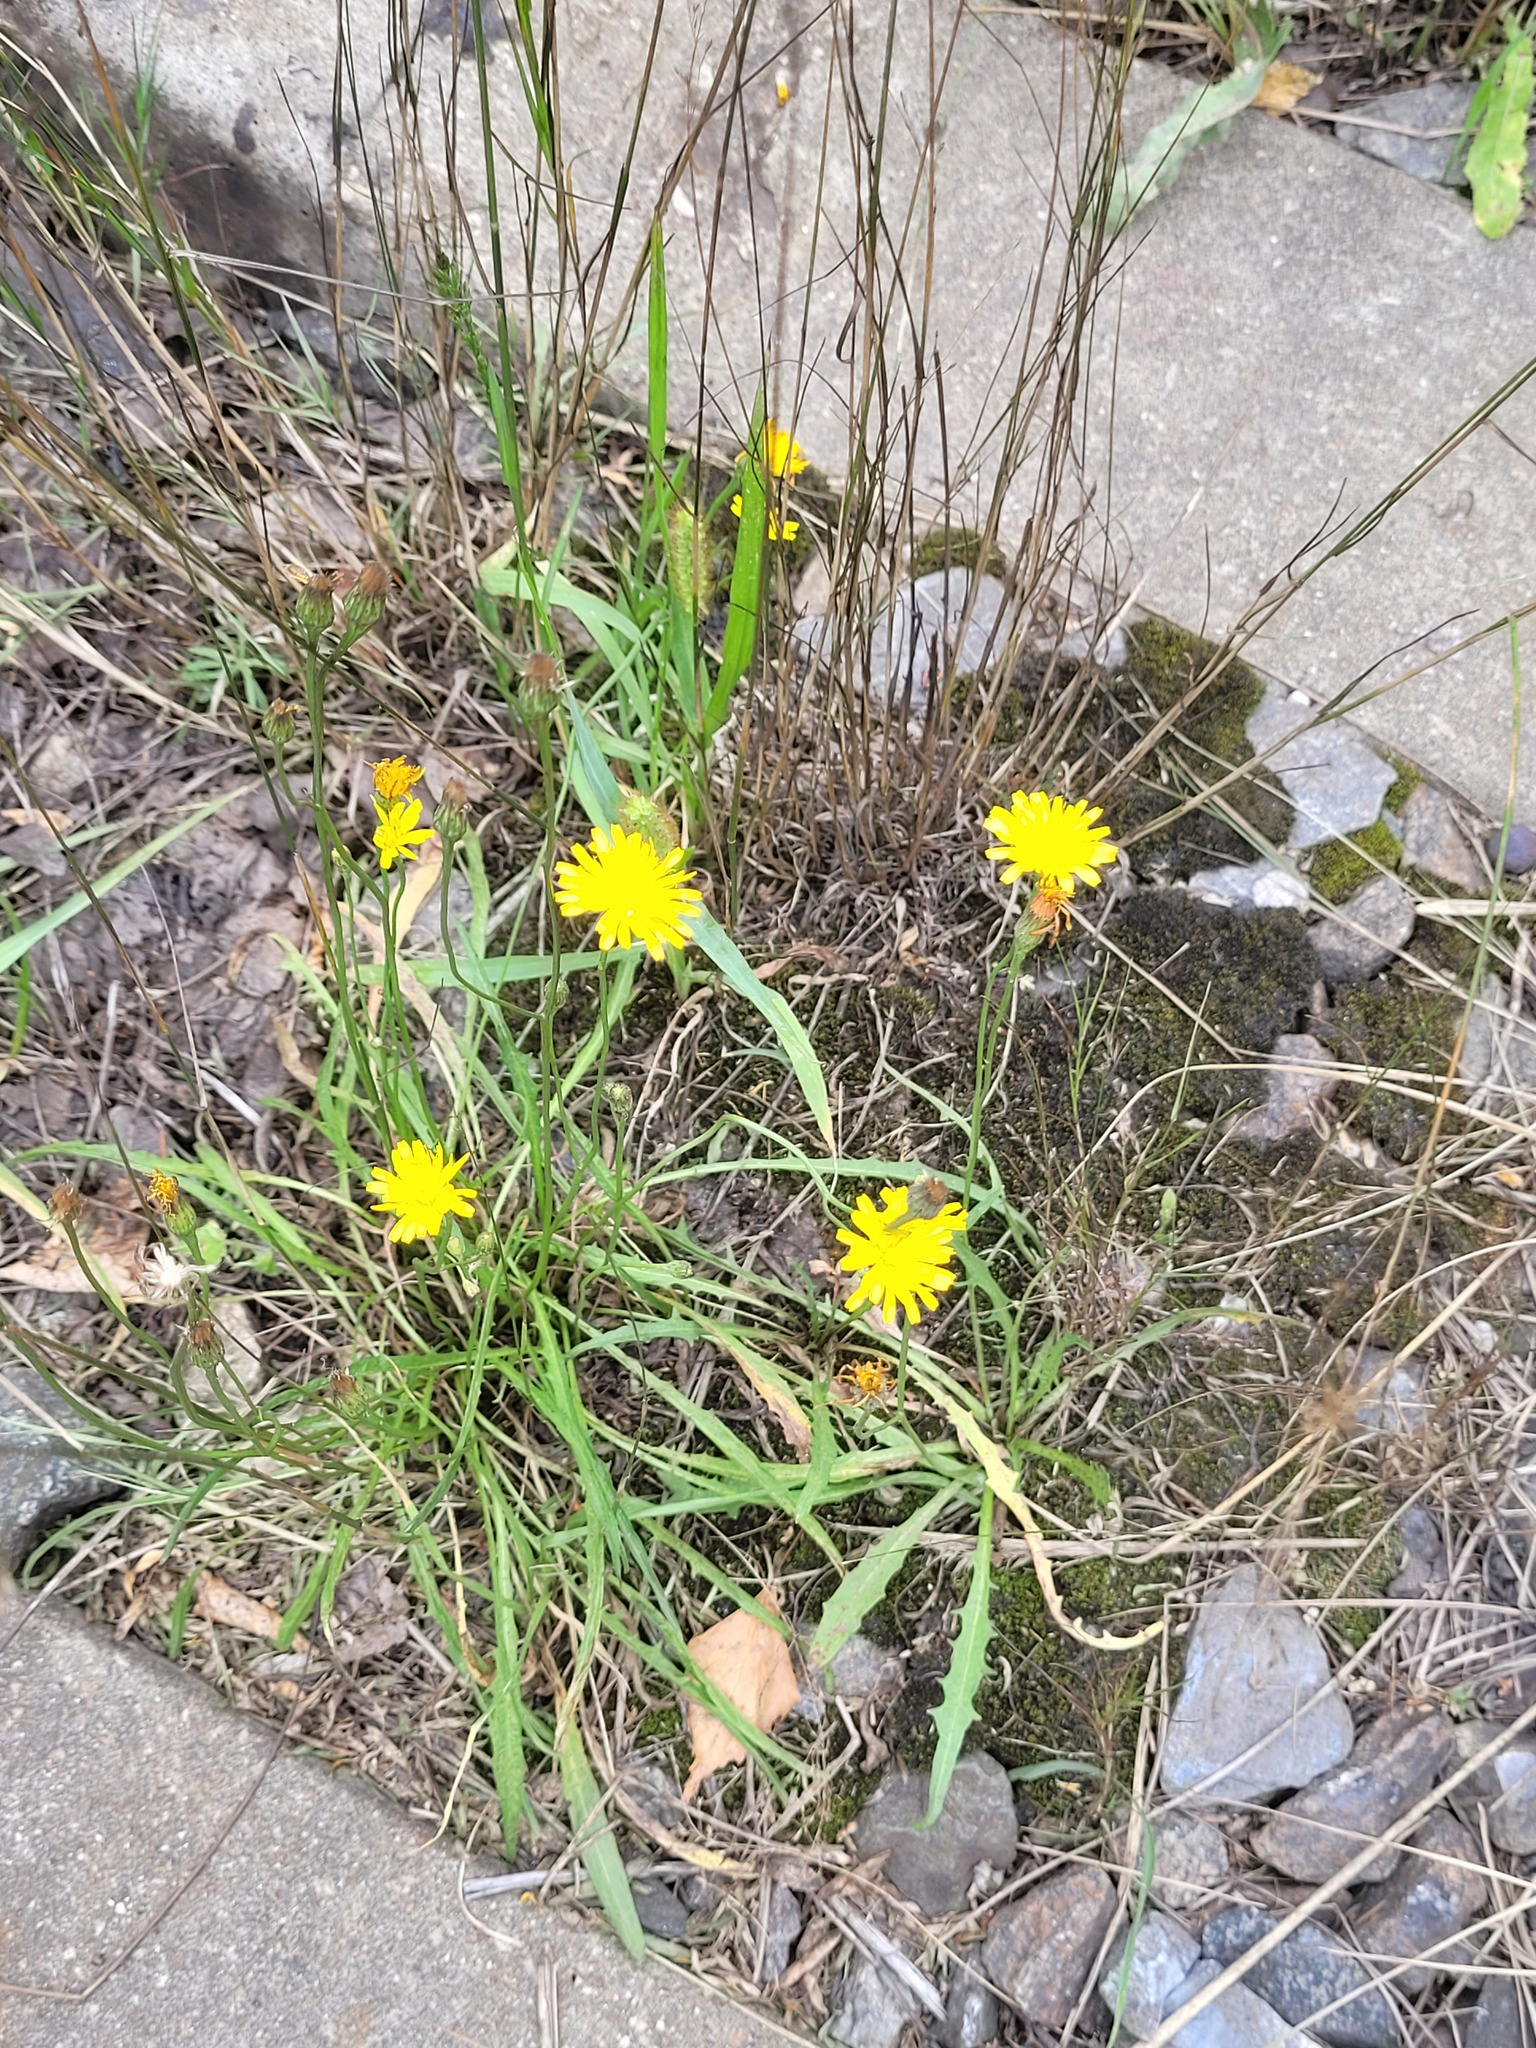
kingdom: Plantae
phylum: Tracheophyta
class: Magnoliopsida
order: Asterales
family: Asteraceae
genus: Scorzoneroides
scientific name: Scorzoneroides autumnalis
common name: Autumn hawkbit
